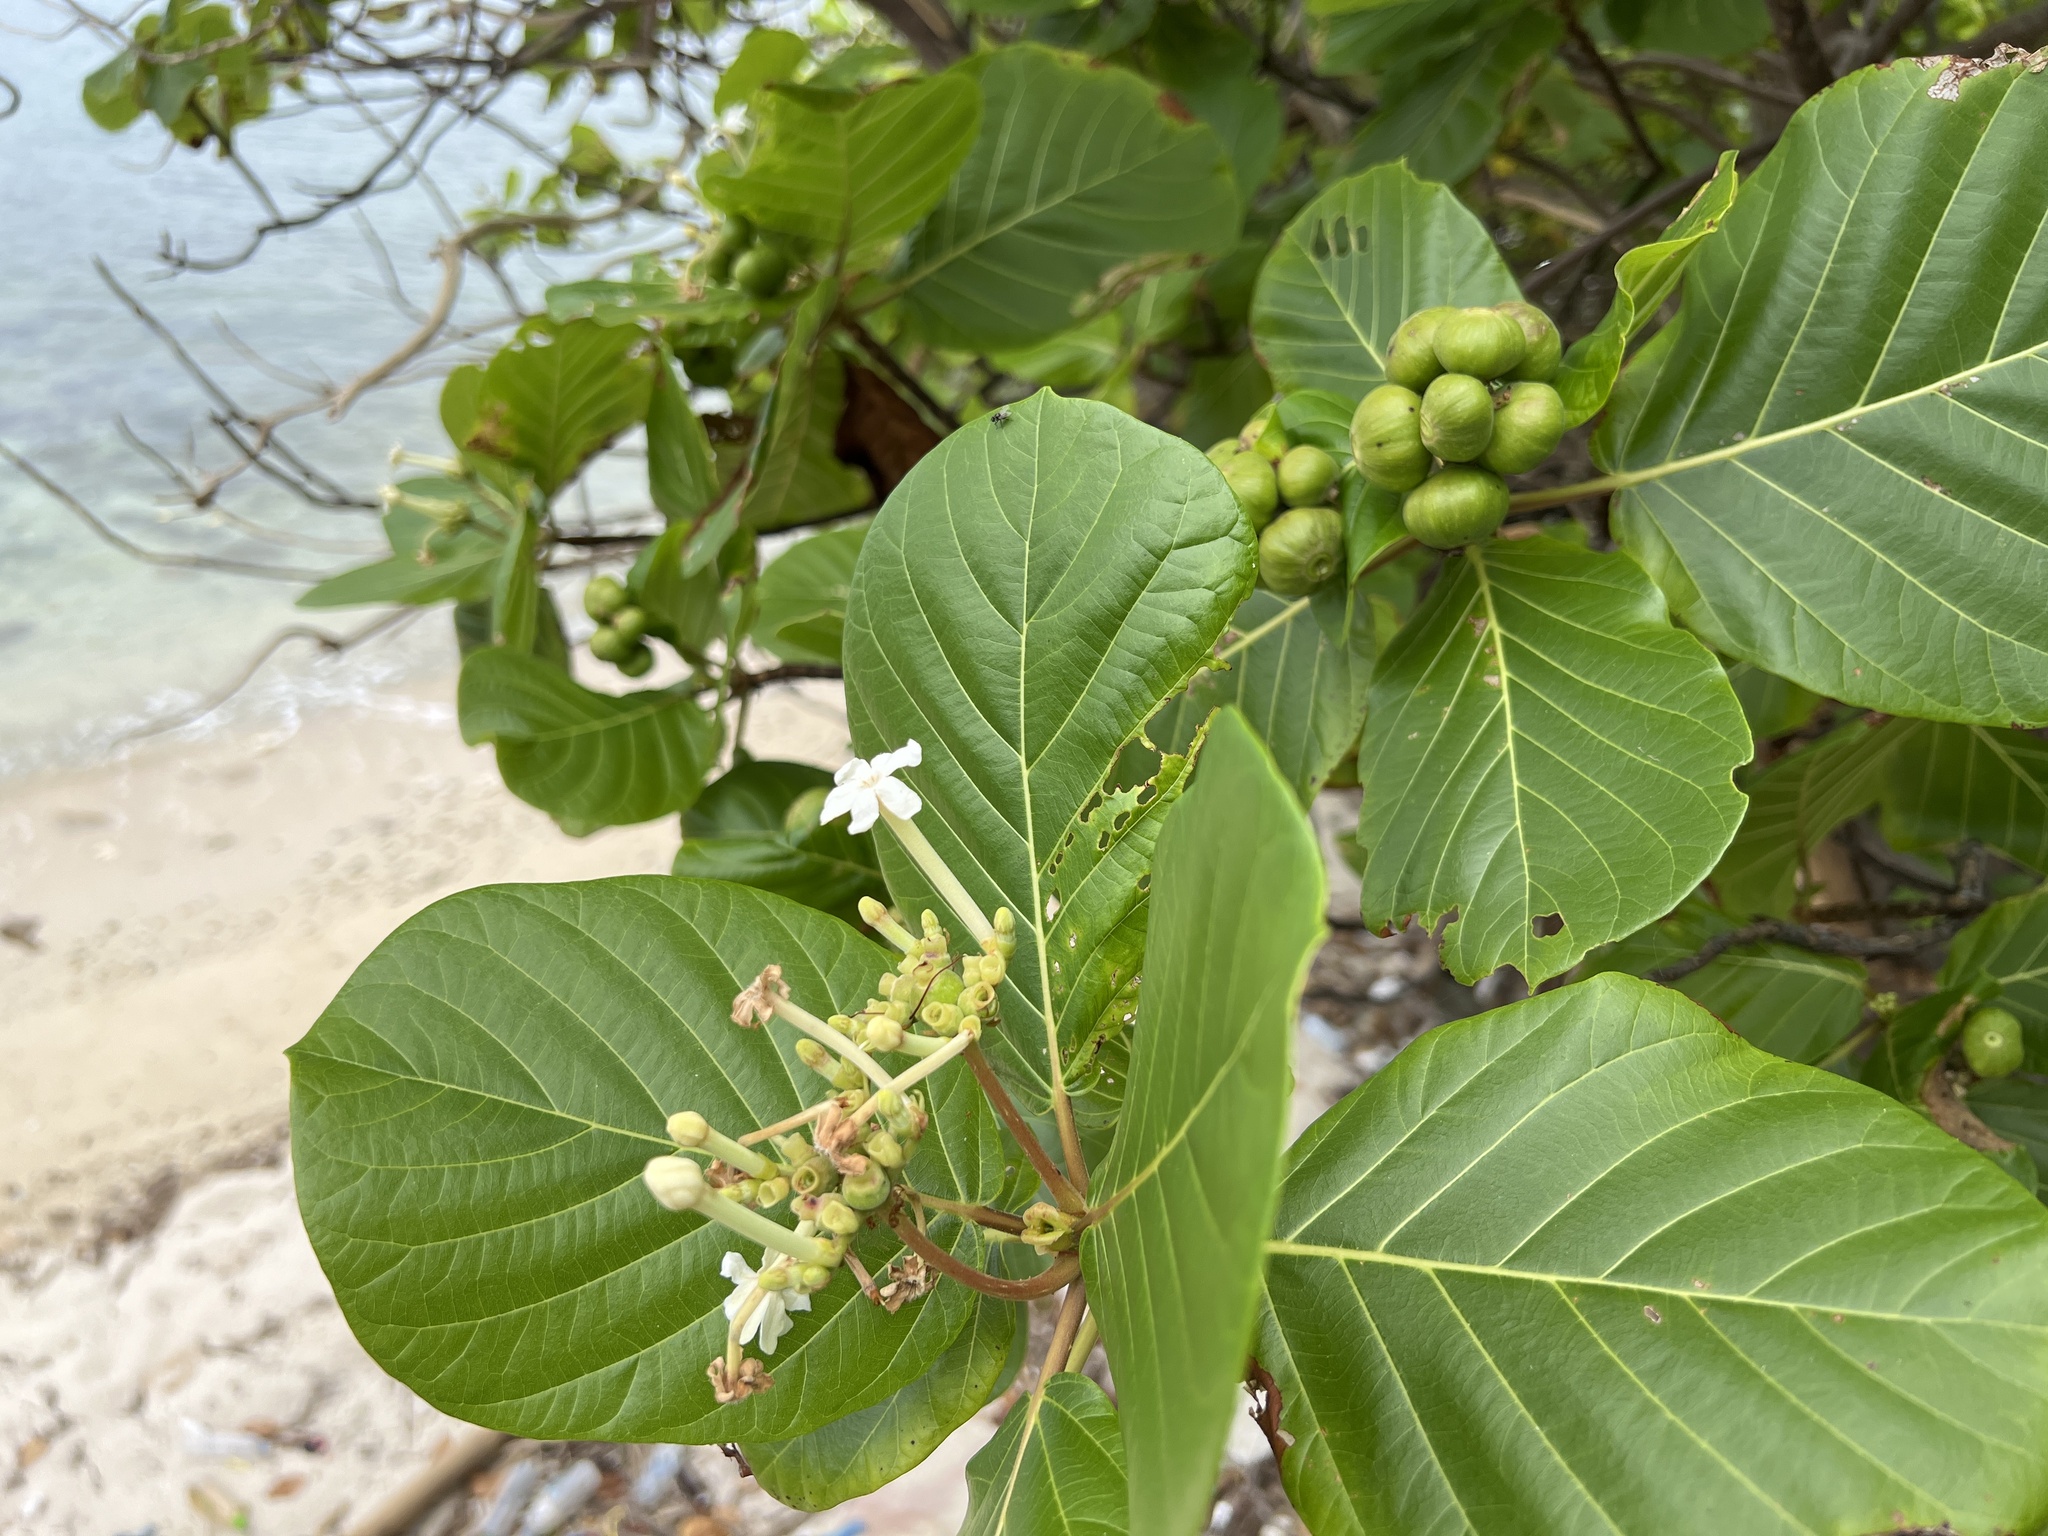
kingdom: Plantae
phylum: Tracheophyta
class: Magnoliopsida
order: Gentianales
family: Rubiaceae
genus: Guettarda
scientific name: Guettarda speciosa
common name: Sea randa
